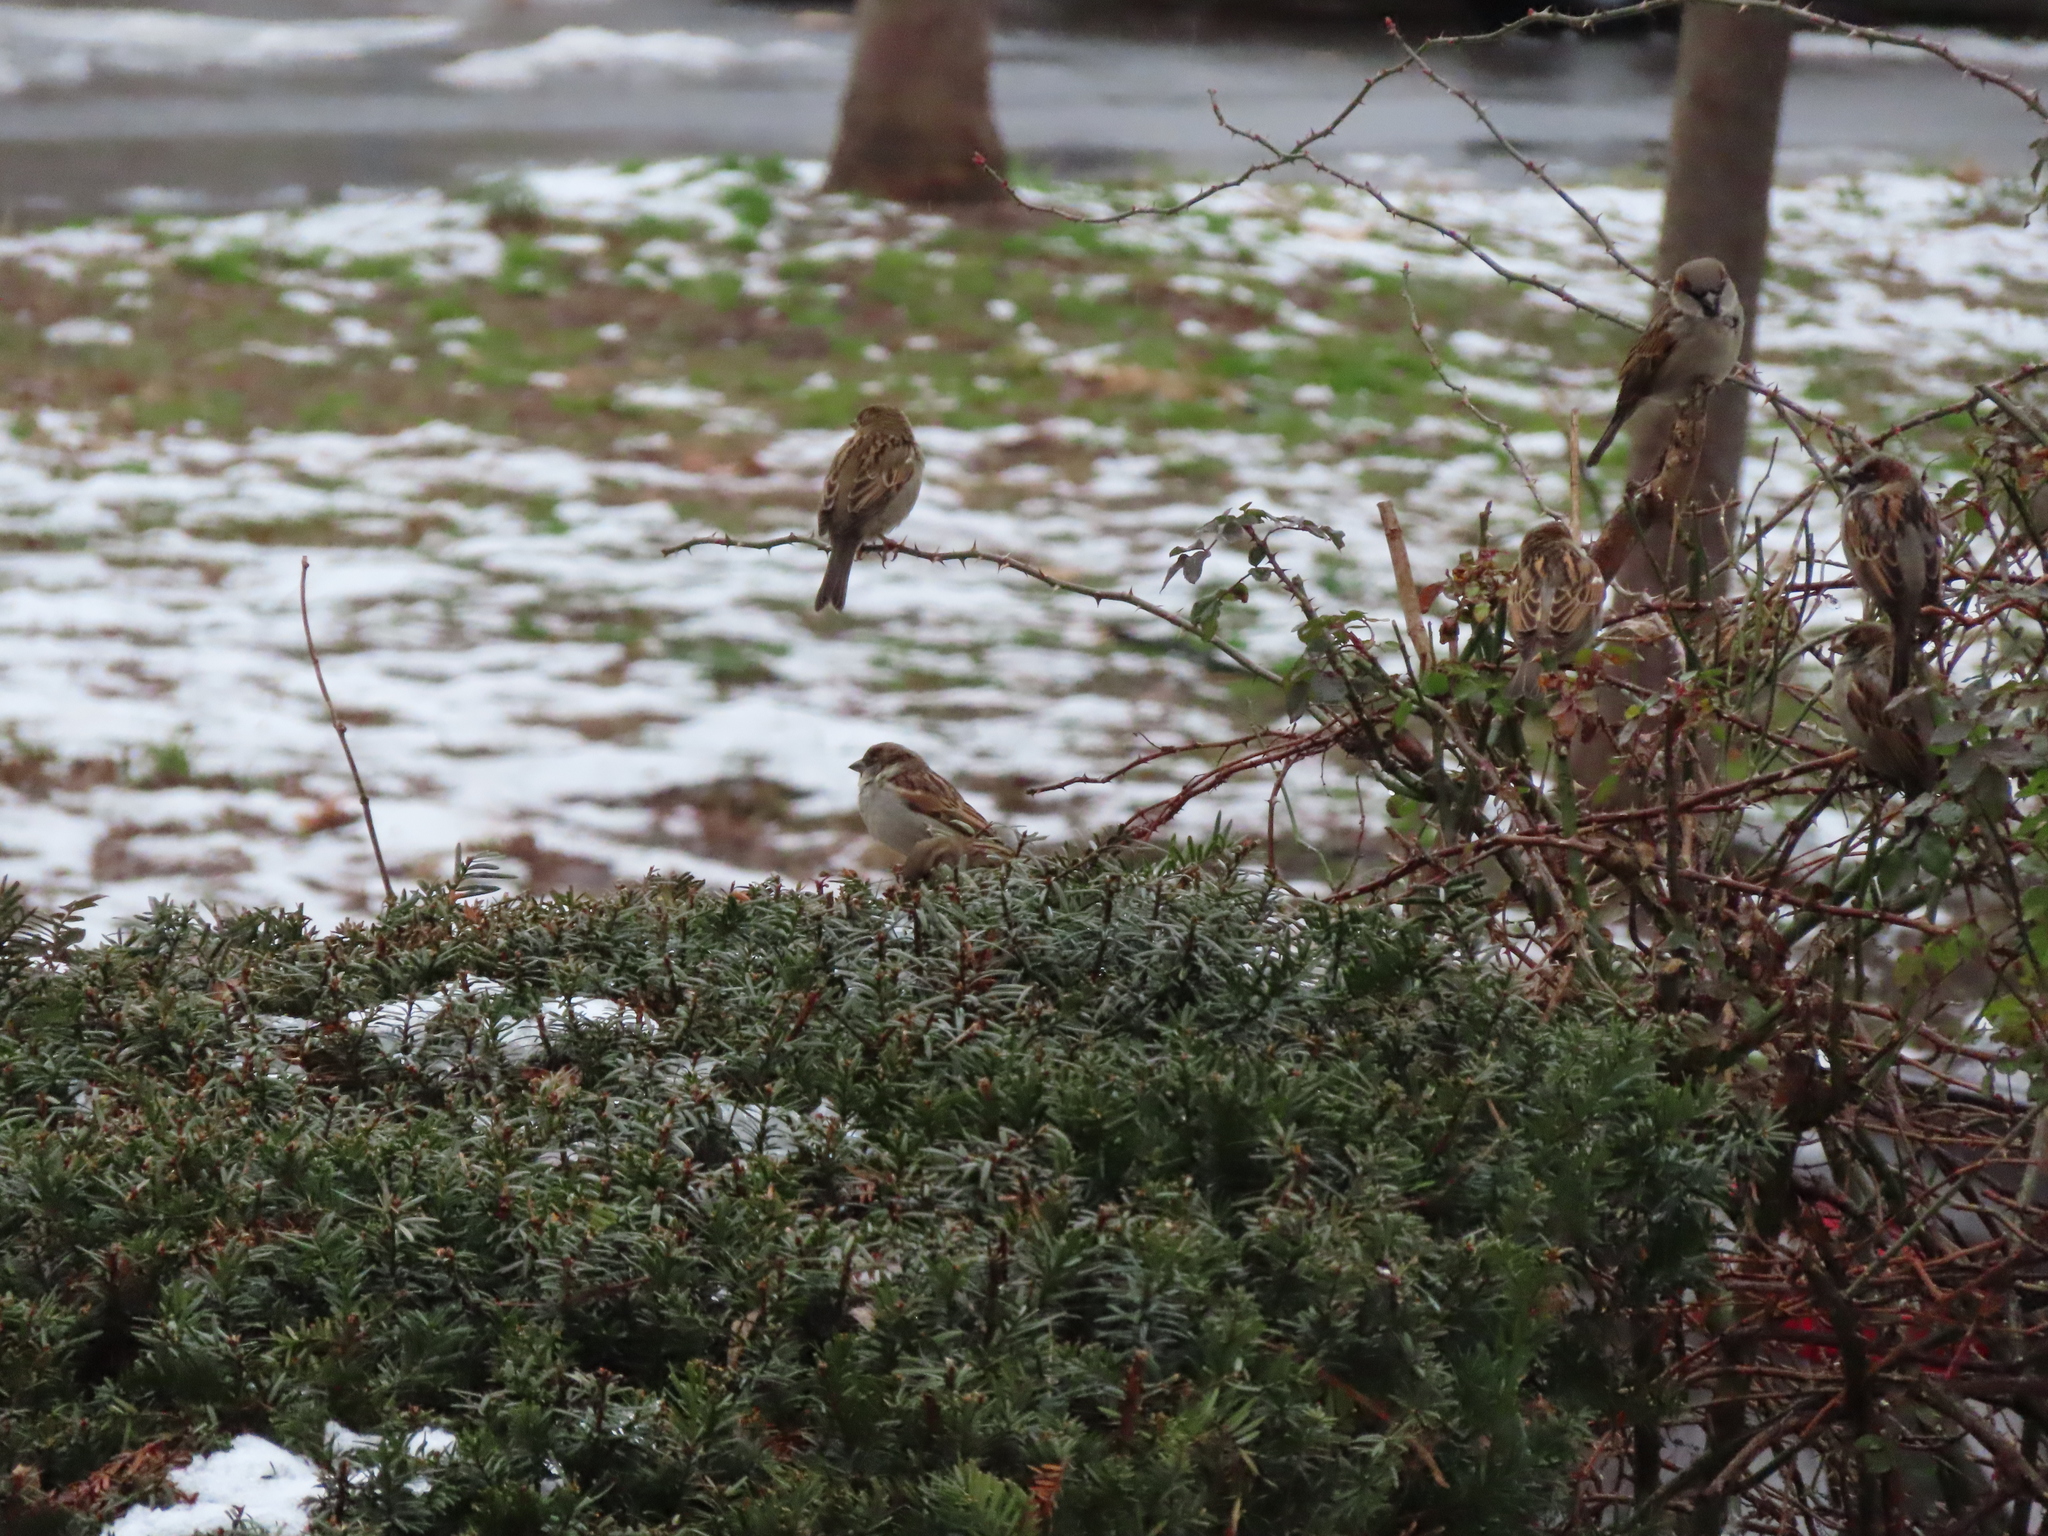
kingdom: Animalia
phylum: Chordata
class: Aves
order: Passeriformes
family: Passeridae
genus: Passer
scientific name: Passer domesticus
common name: House sparrow
